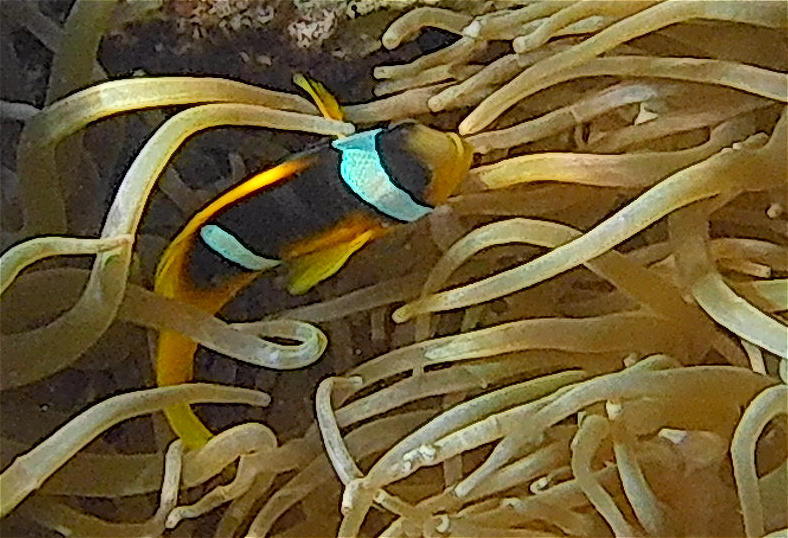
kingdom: Animalia
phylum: Chordata
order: Perciformes
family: Pomacentridae
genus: Amphiprion
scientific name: Amphiprion bicinctus
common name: Two-banded anemonefish
